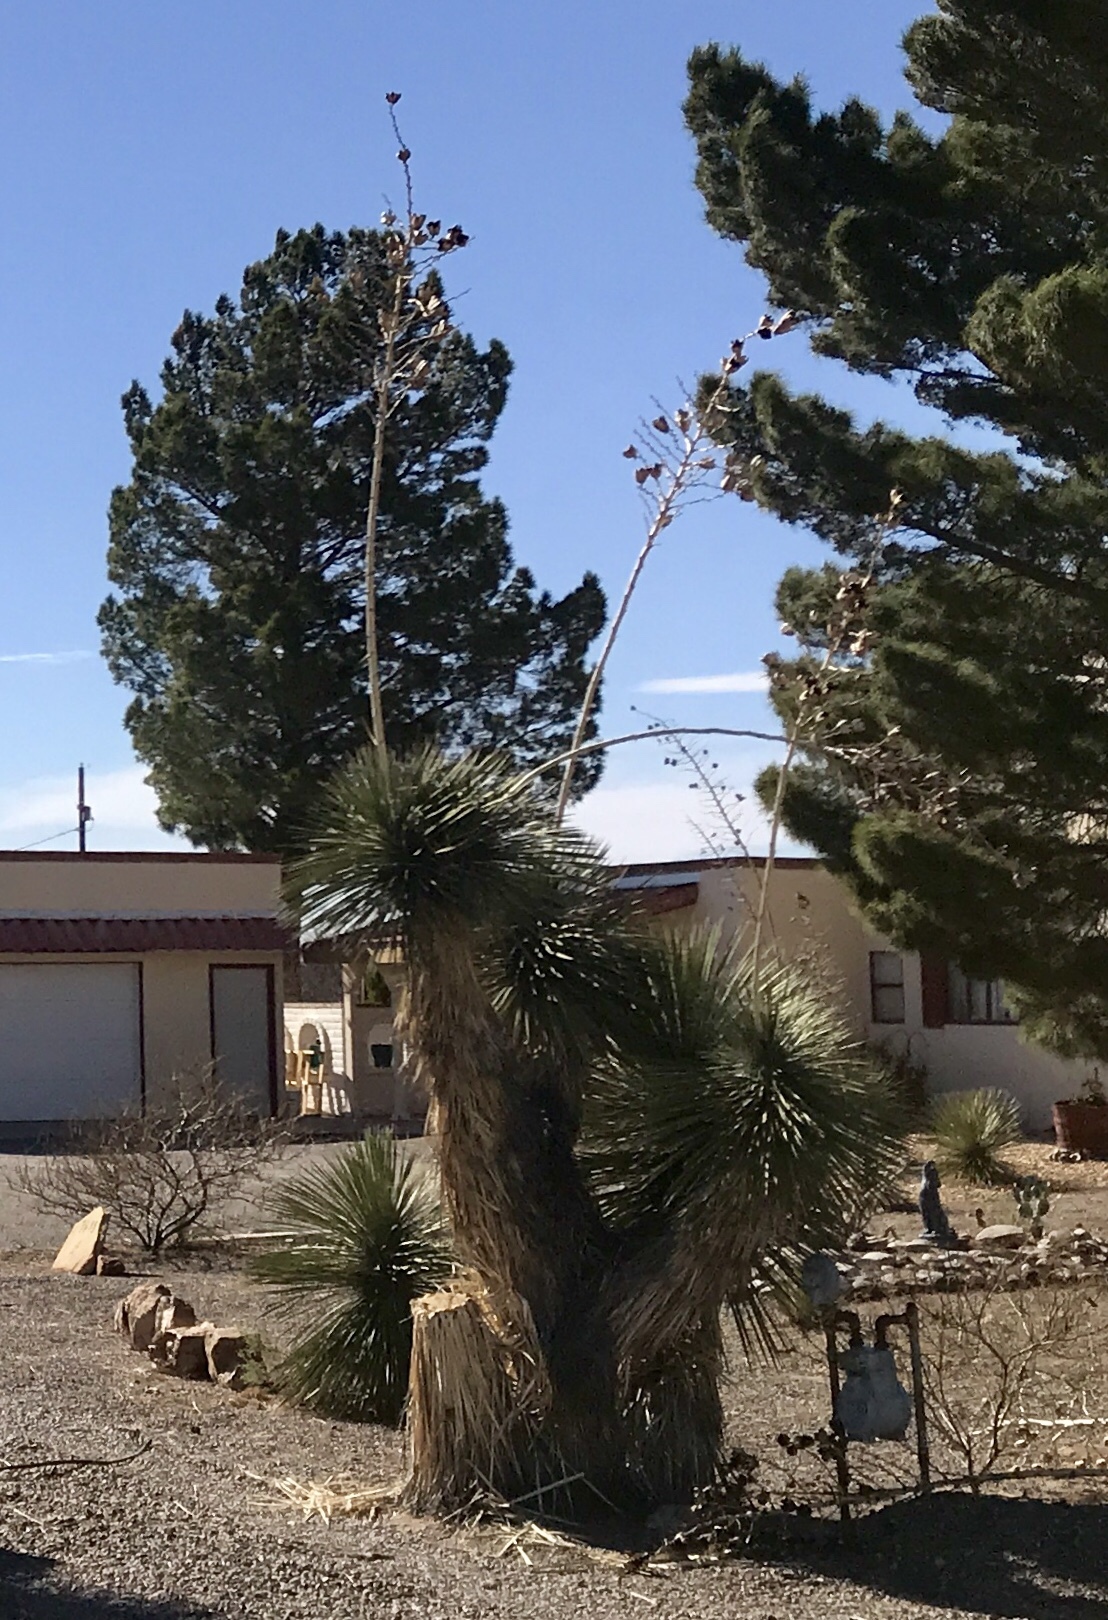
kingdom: Plantae
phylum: Tracheophyta
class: Liliopsida
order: Asparagales
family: Asparagaceae
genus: Yucca
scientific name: Yucca elata
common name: Palmella
